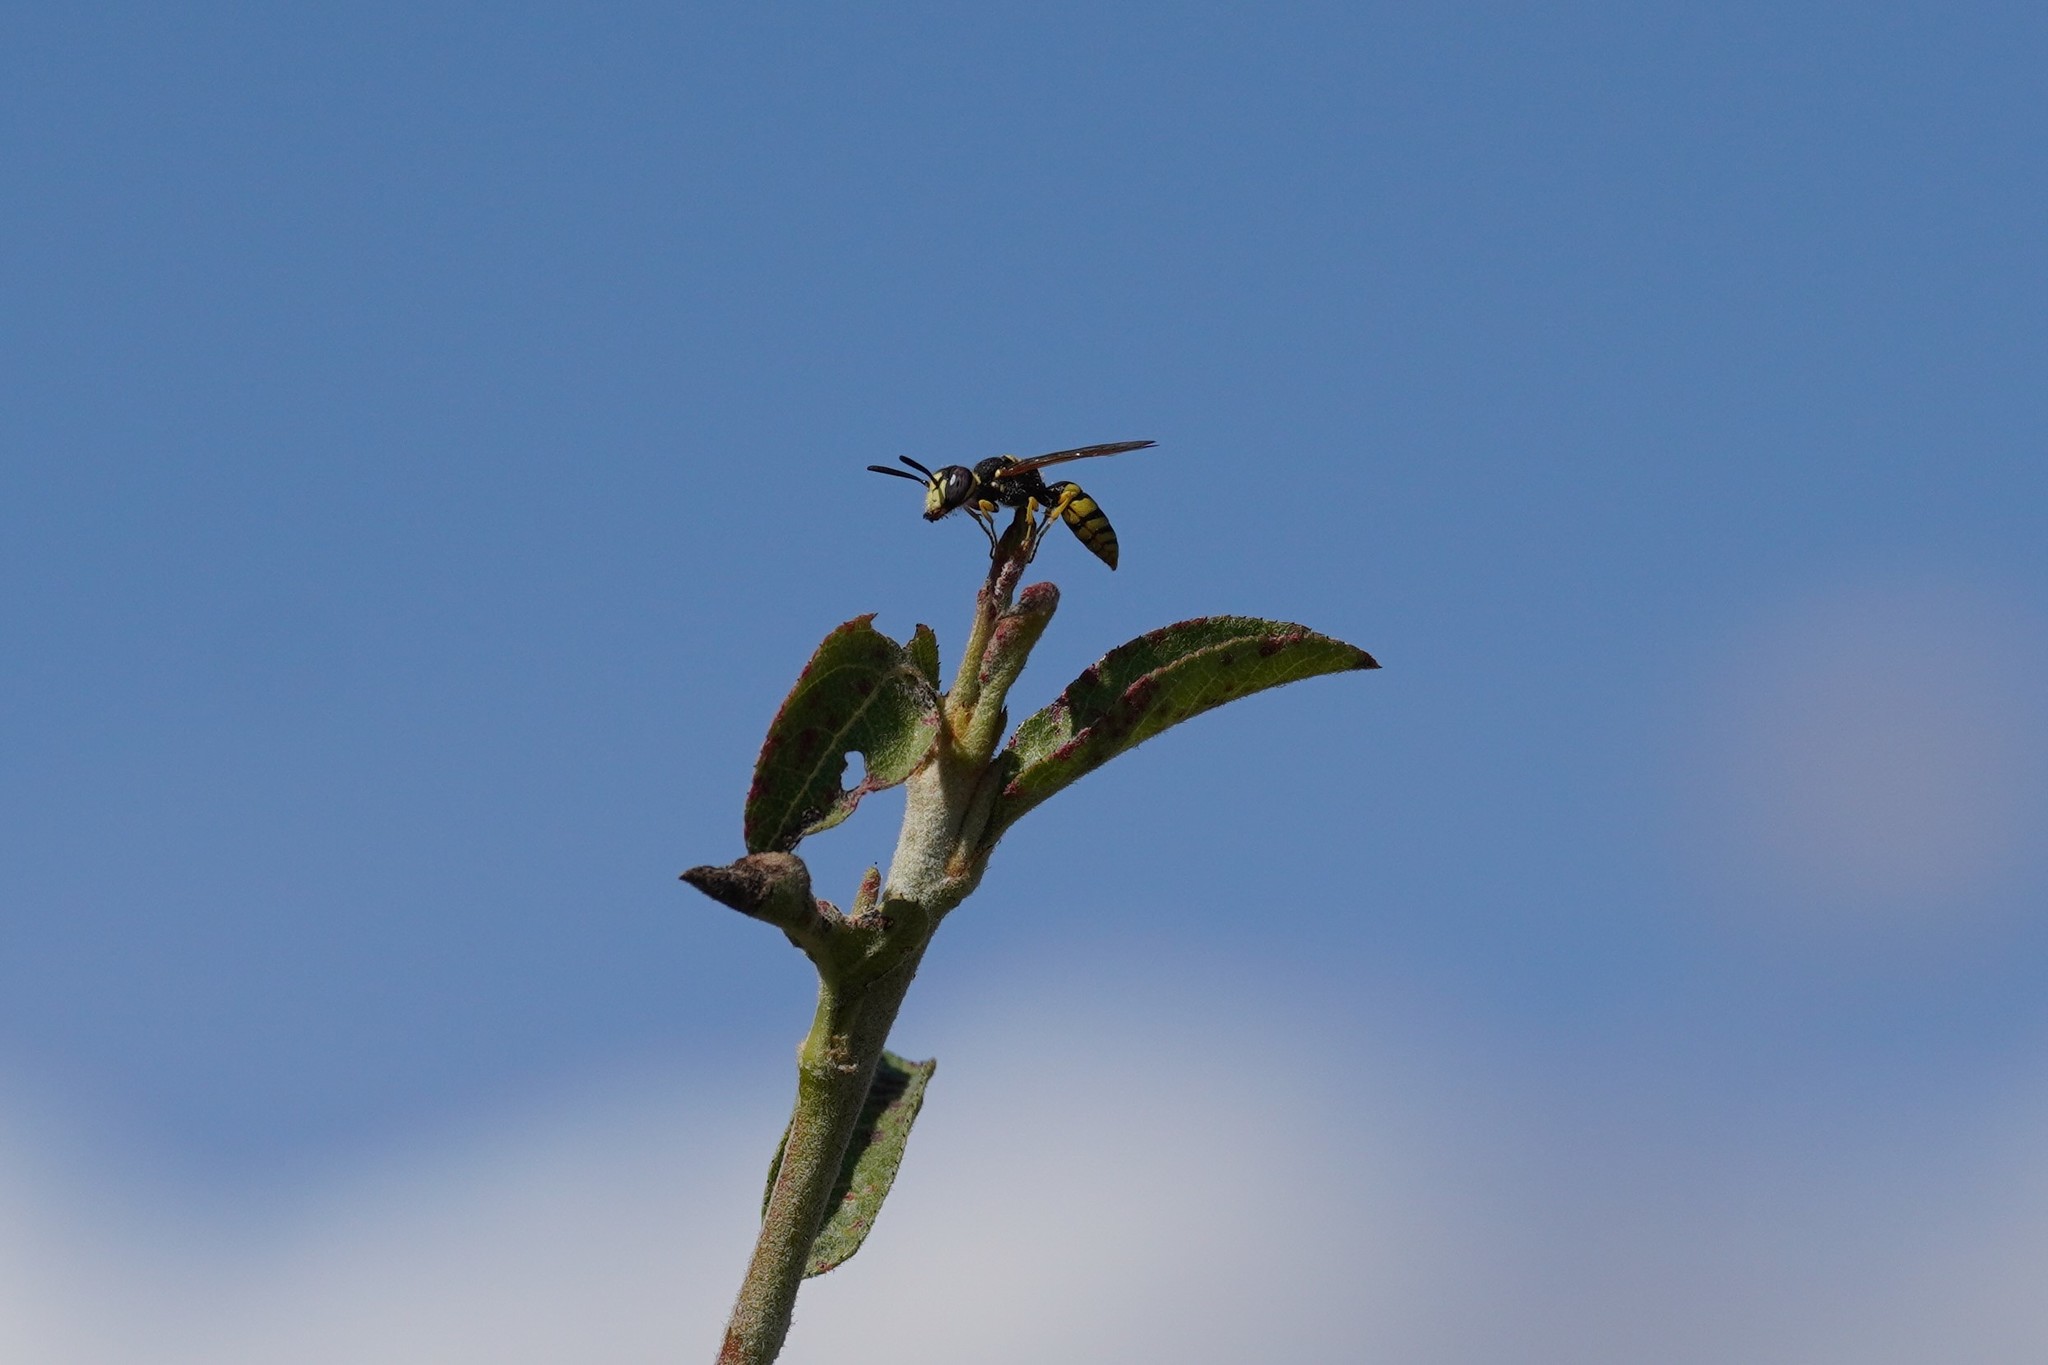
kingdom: Animalia
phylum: Arthropoda
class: Insecta
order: Hymenoptera
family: Crabronidae
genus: Philanthus
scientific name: Philanthus triangulum
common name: Bee wolf
